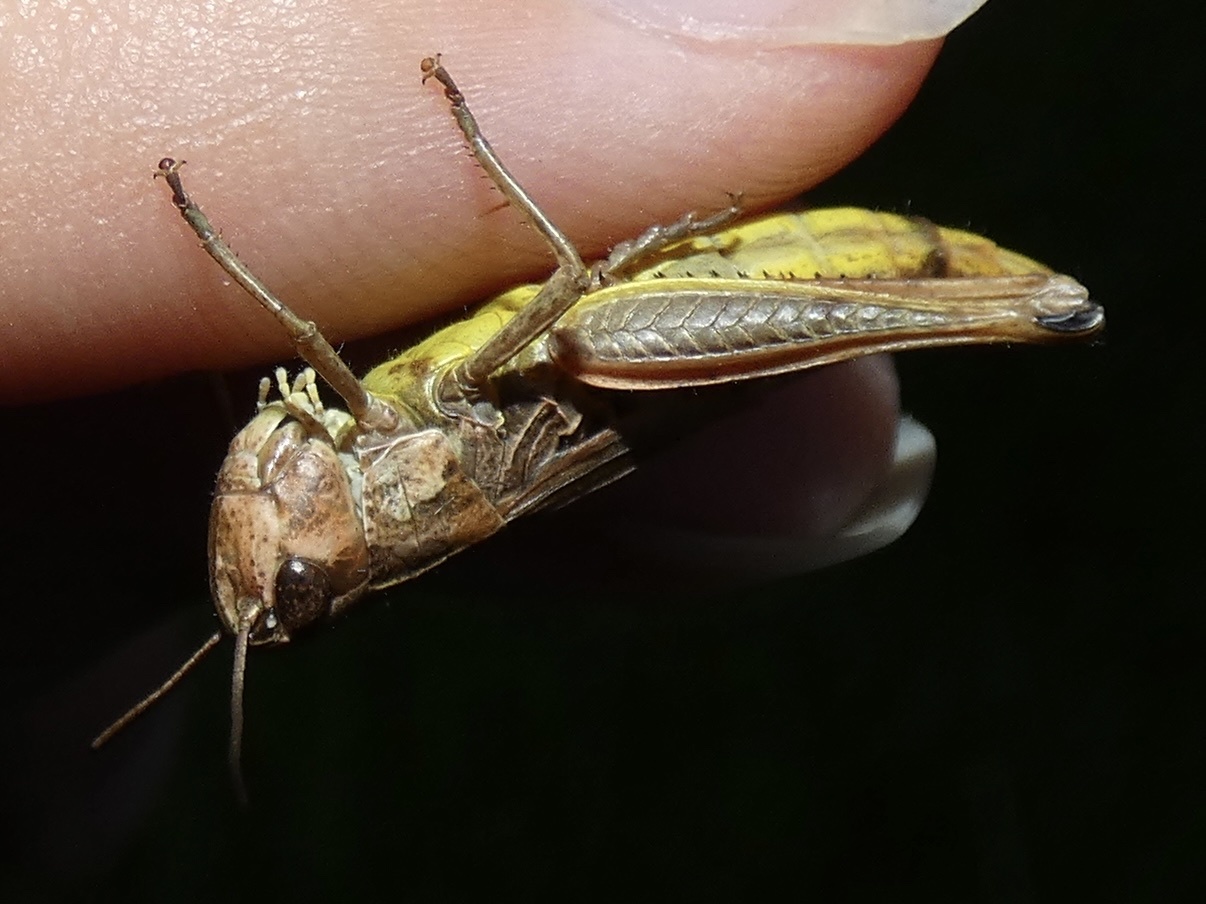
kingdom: Animalia
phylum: Arthropoda
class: Insecta
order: Orthoptera
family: Acrididae
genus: Pseudochorthippus
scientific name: Pseudochorthippus parallelus
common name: Meadow grasshopper
